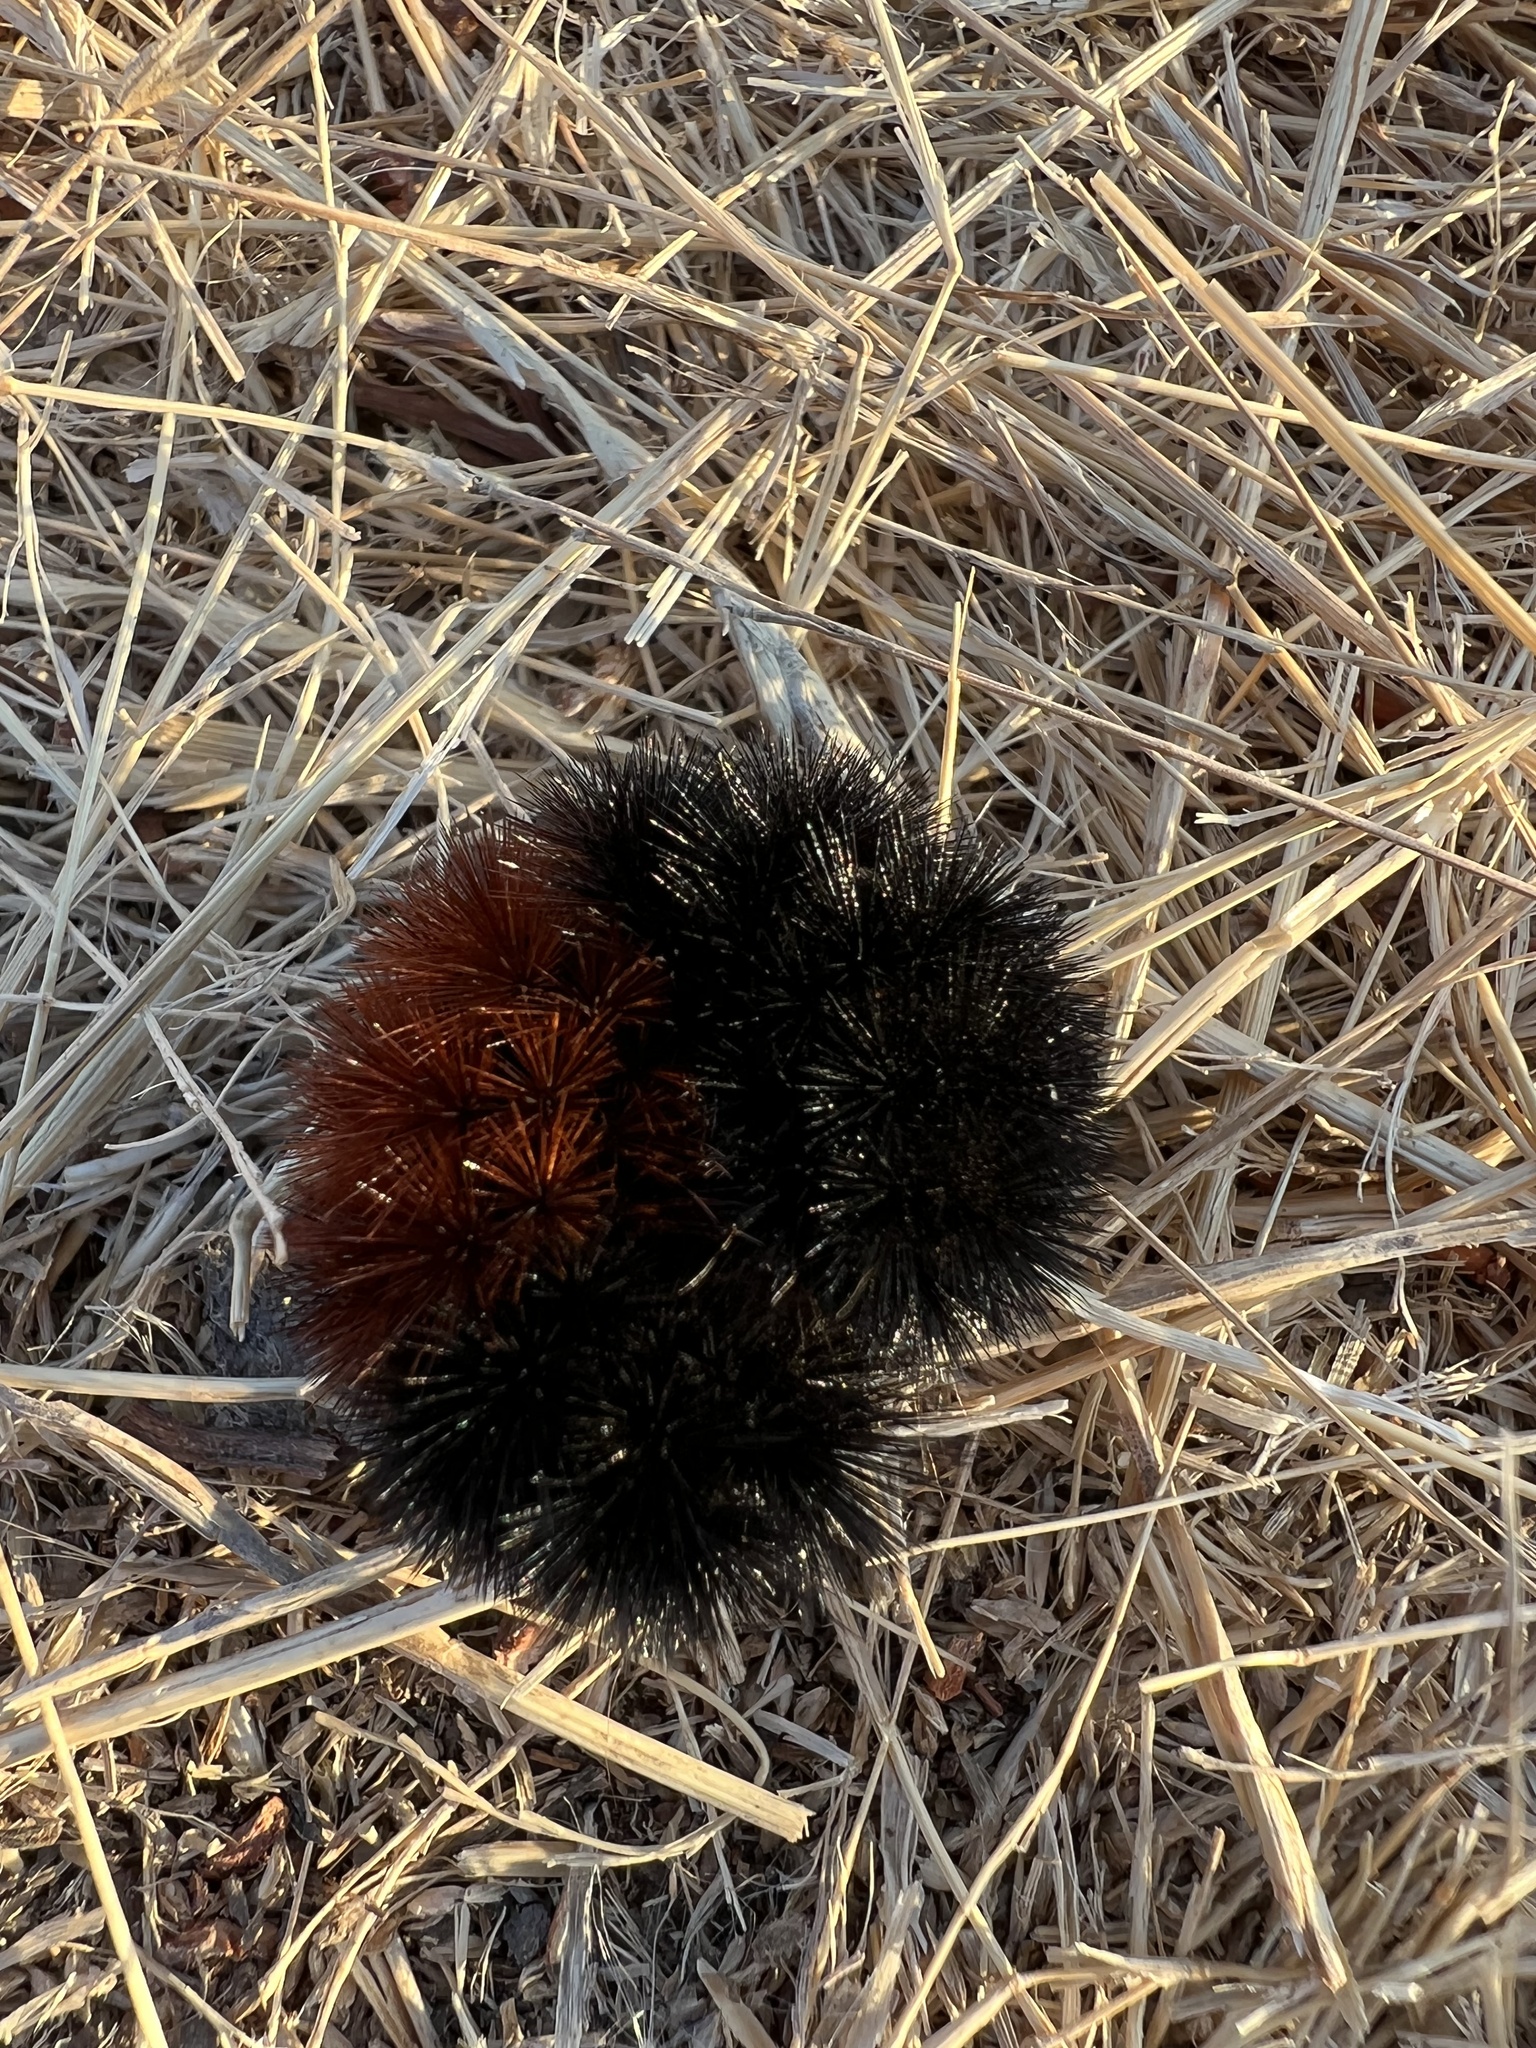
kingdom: Animalia
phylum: Arthropoda
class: Insecta
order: Lepidoptera
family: Erebidae
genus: Pyrrharctia
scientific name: Pyrrharctia isabella
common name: Isabella tiger moth
